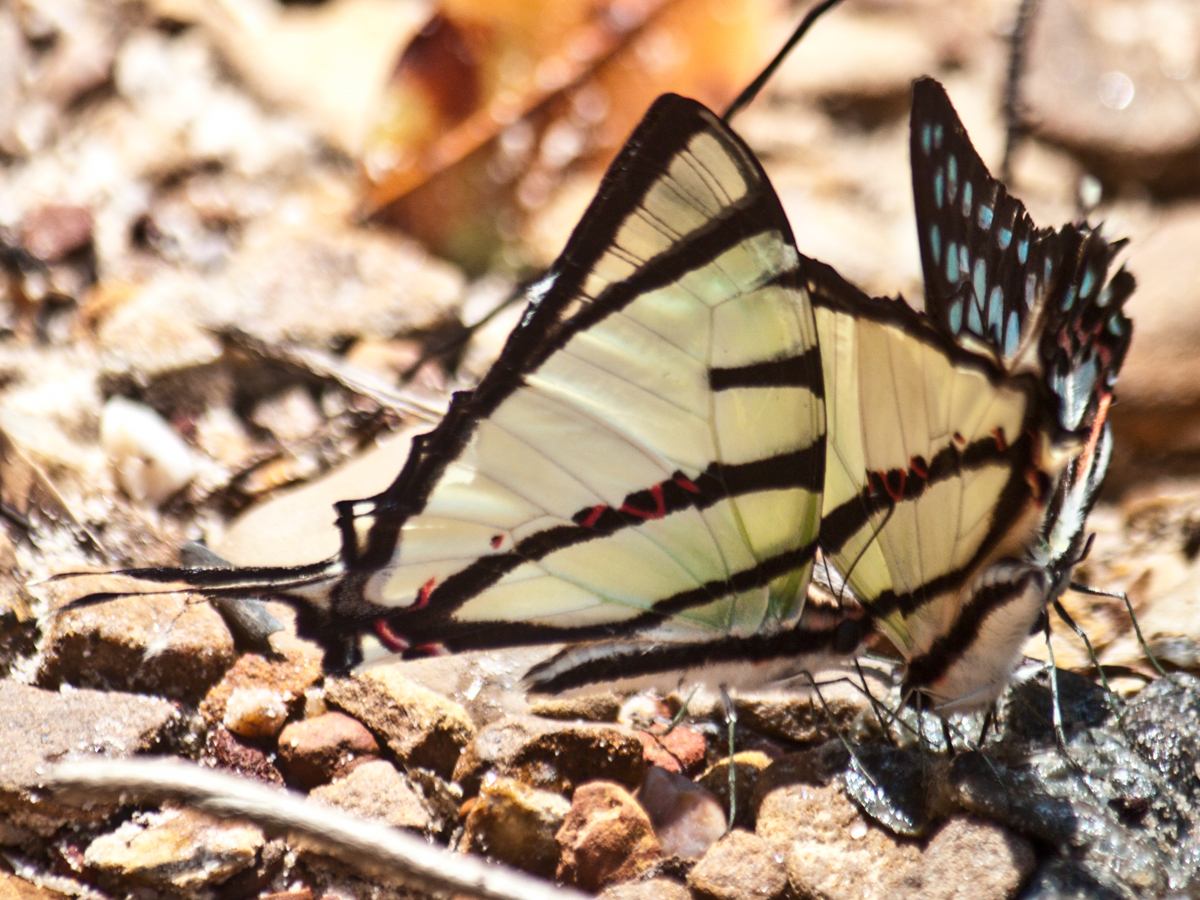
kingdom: Animalia
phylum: Arthropoda
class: Insecta
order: Lepidoptera
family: Papilionidae
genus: Graphium
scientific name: Graphium agetes
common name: Fourbar swordtail
